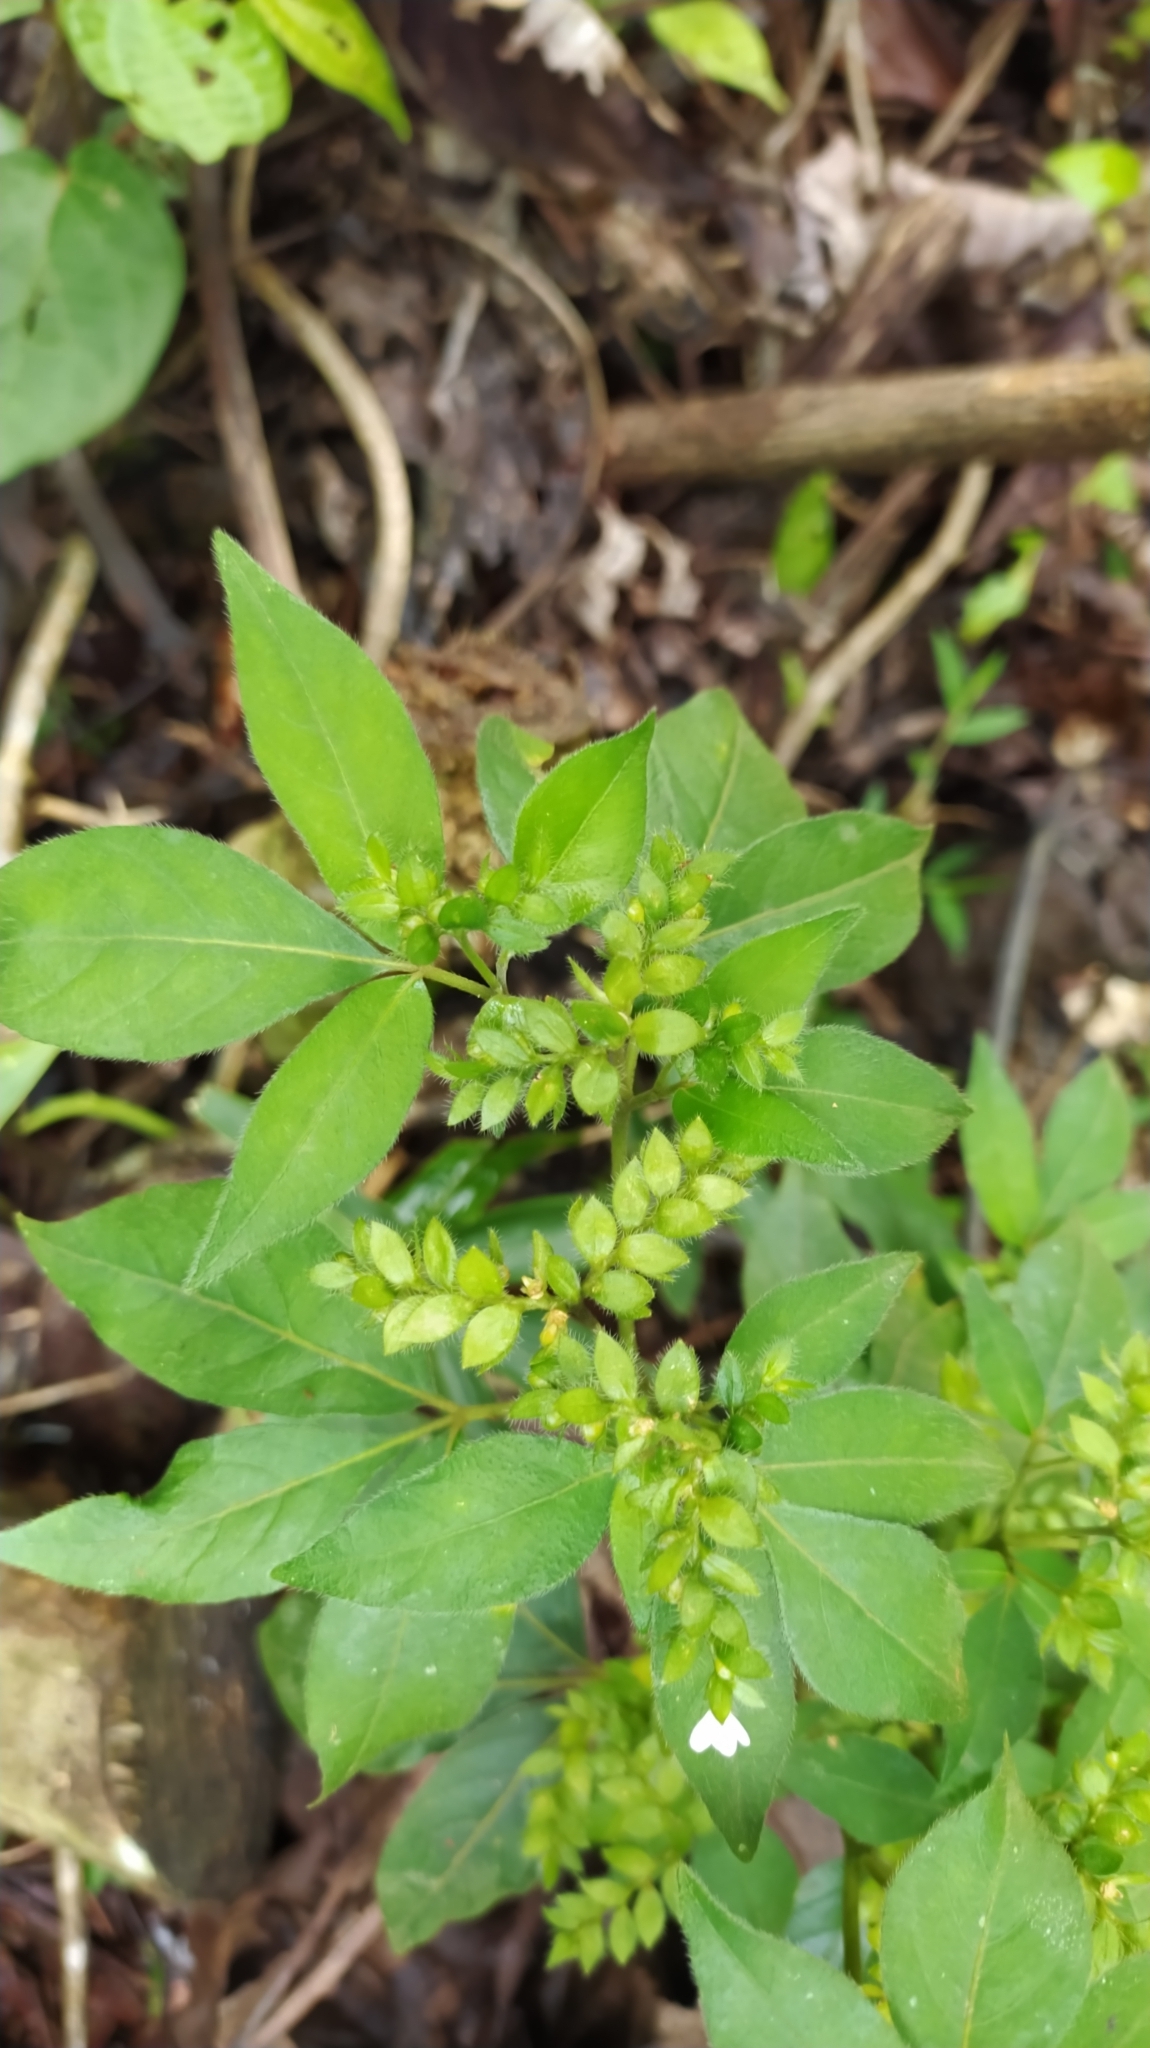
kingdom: Plantae
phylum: Tracheophyta
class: Magnoliopsida
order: Sapindales
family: Rutaceae
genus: Ertela
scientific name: Ertela trifolia
